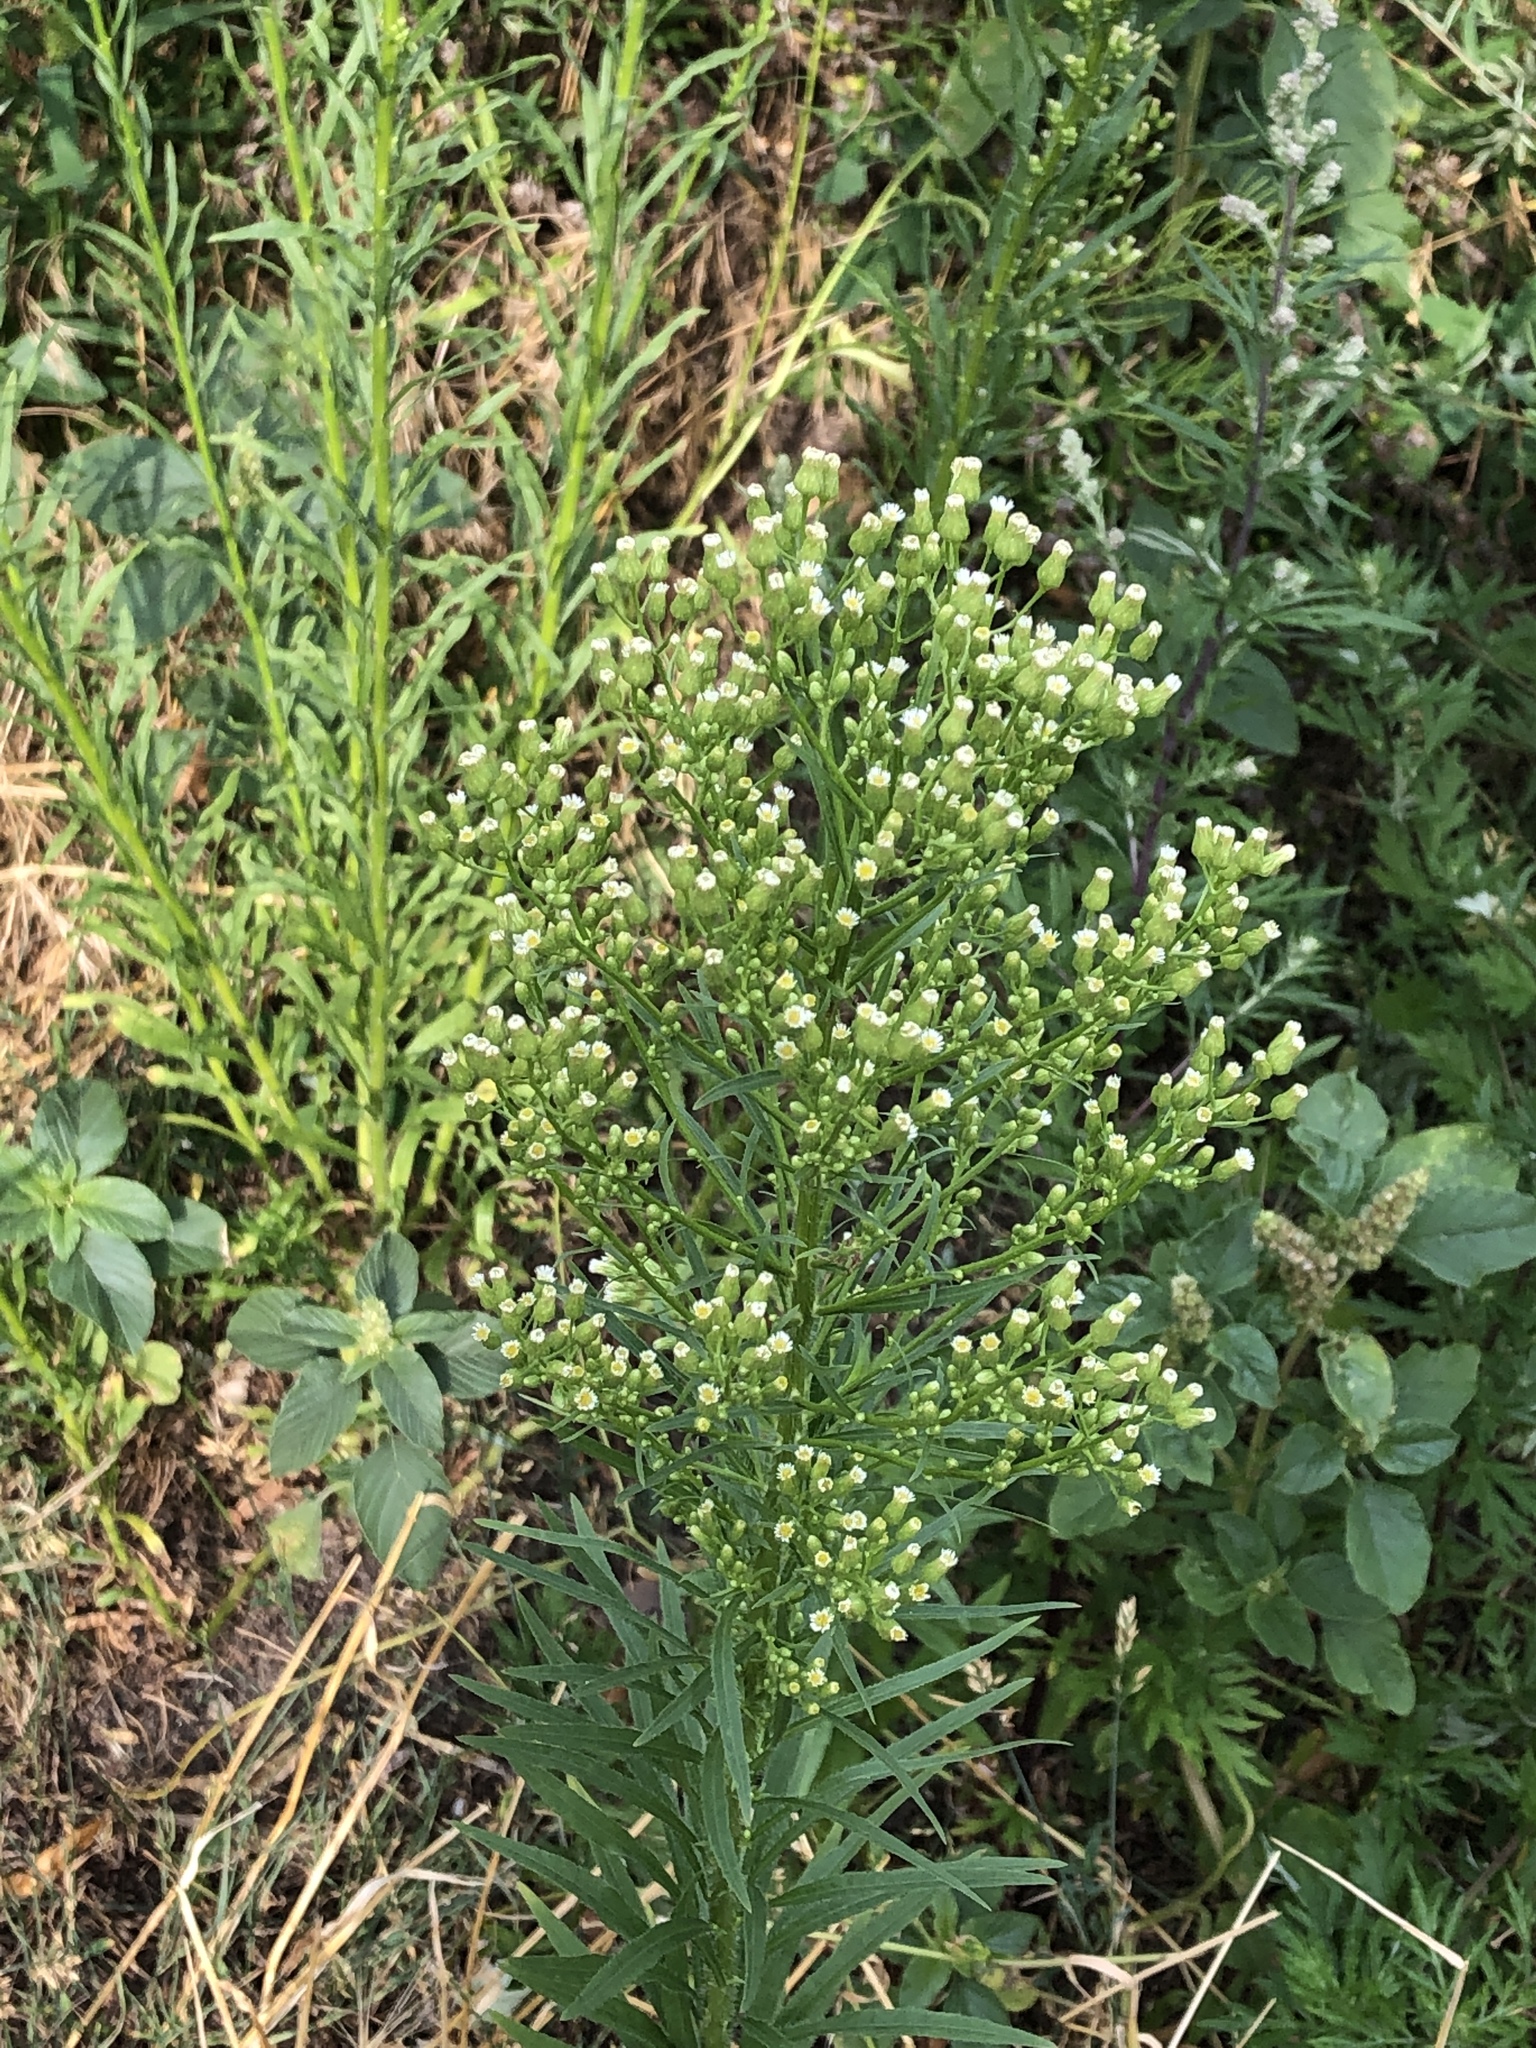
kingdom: Plantae
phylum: Tracheophyta
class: Magnoliopsida
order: Asterales
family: Asteraceae
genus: Erigeron
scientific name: Erigeron canadensis
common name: Canadian fleabane
